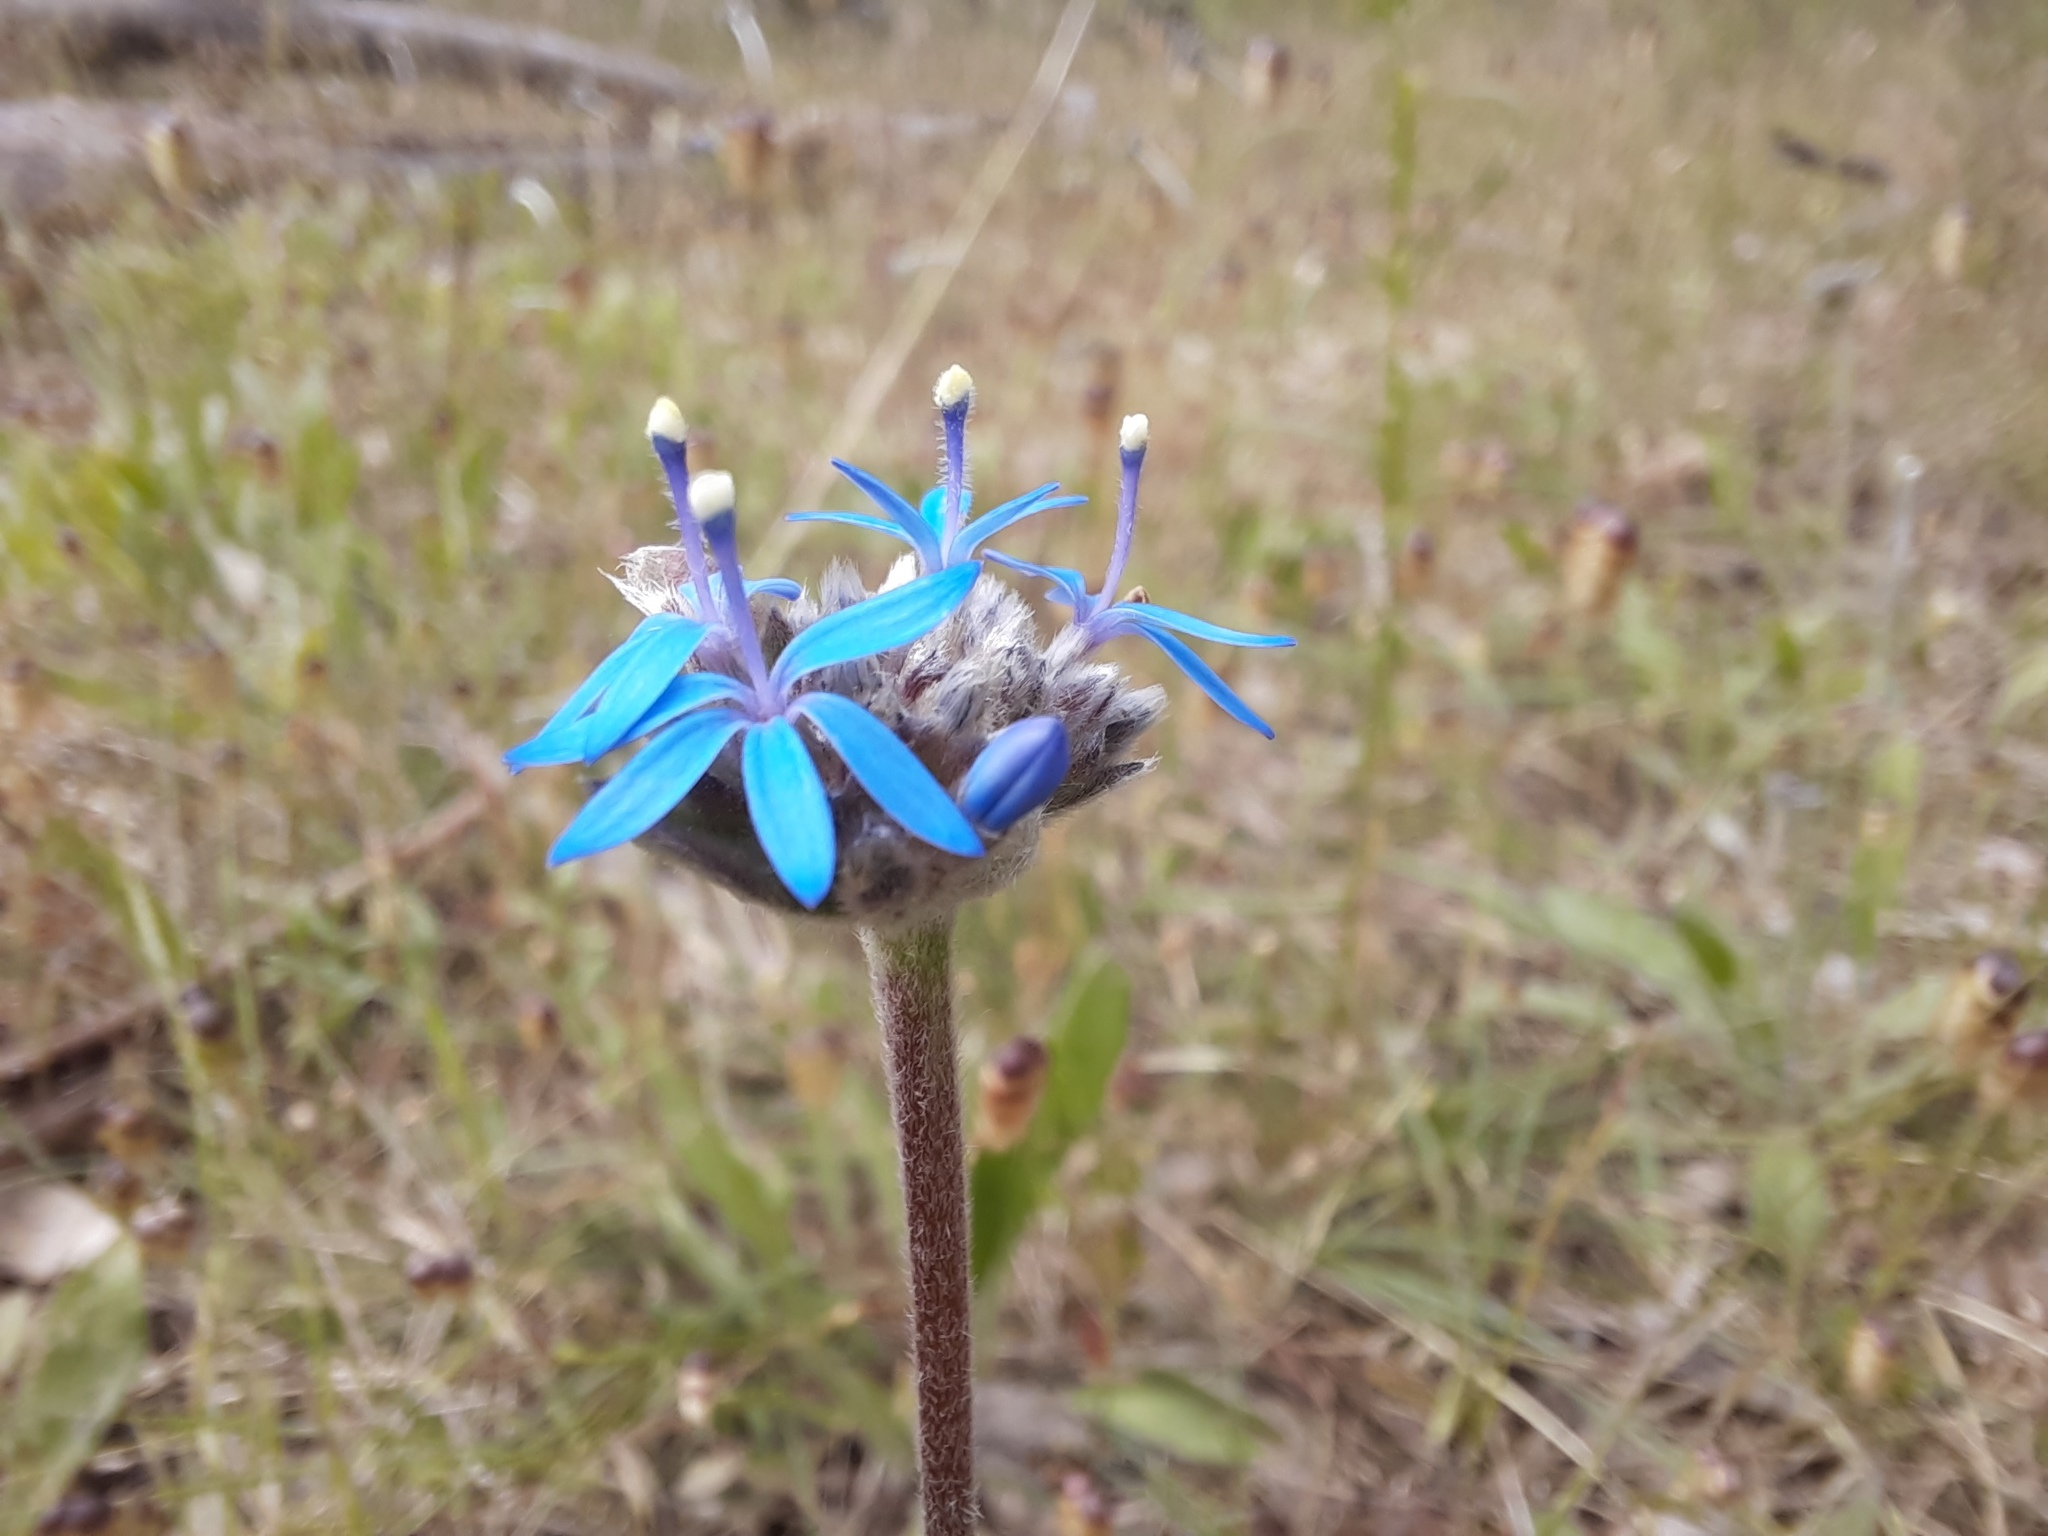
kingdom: Plantae
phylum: Tracheophyta
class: Magnoliopsida
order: Asterales
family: Goodeniaceae
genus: Brunonia
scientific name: Brunonia australis
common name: Blue pincushion
